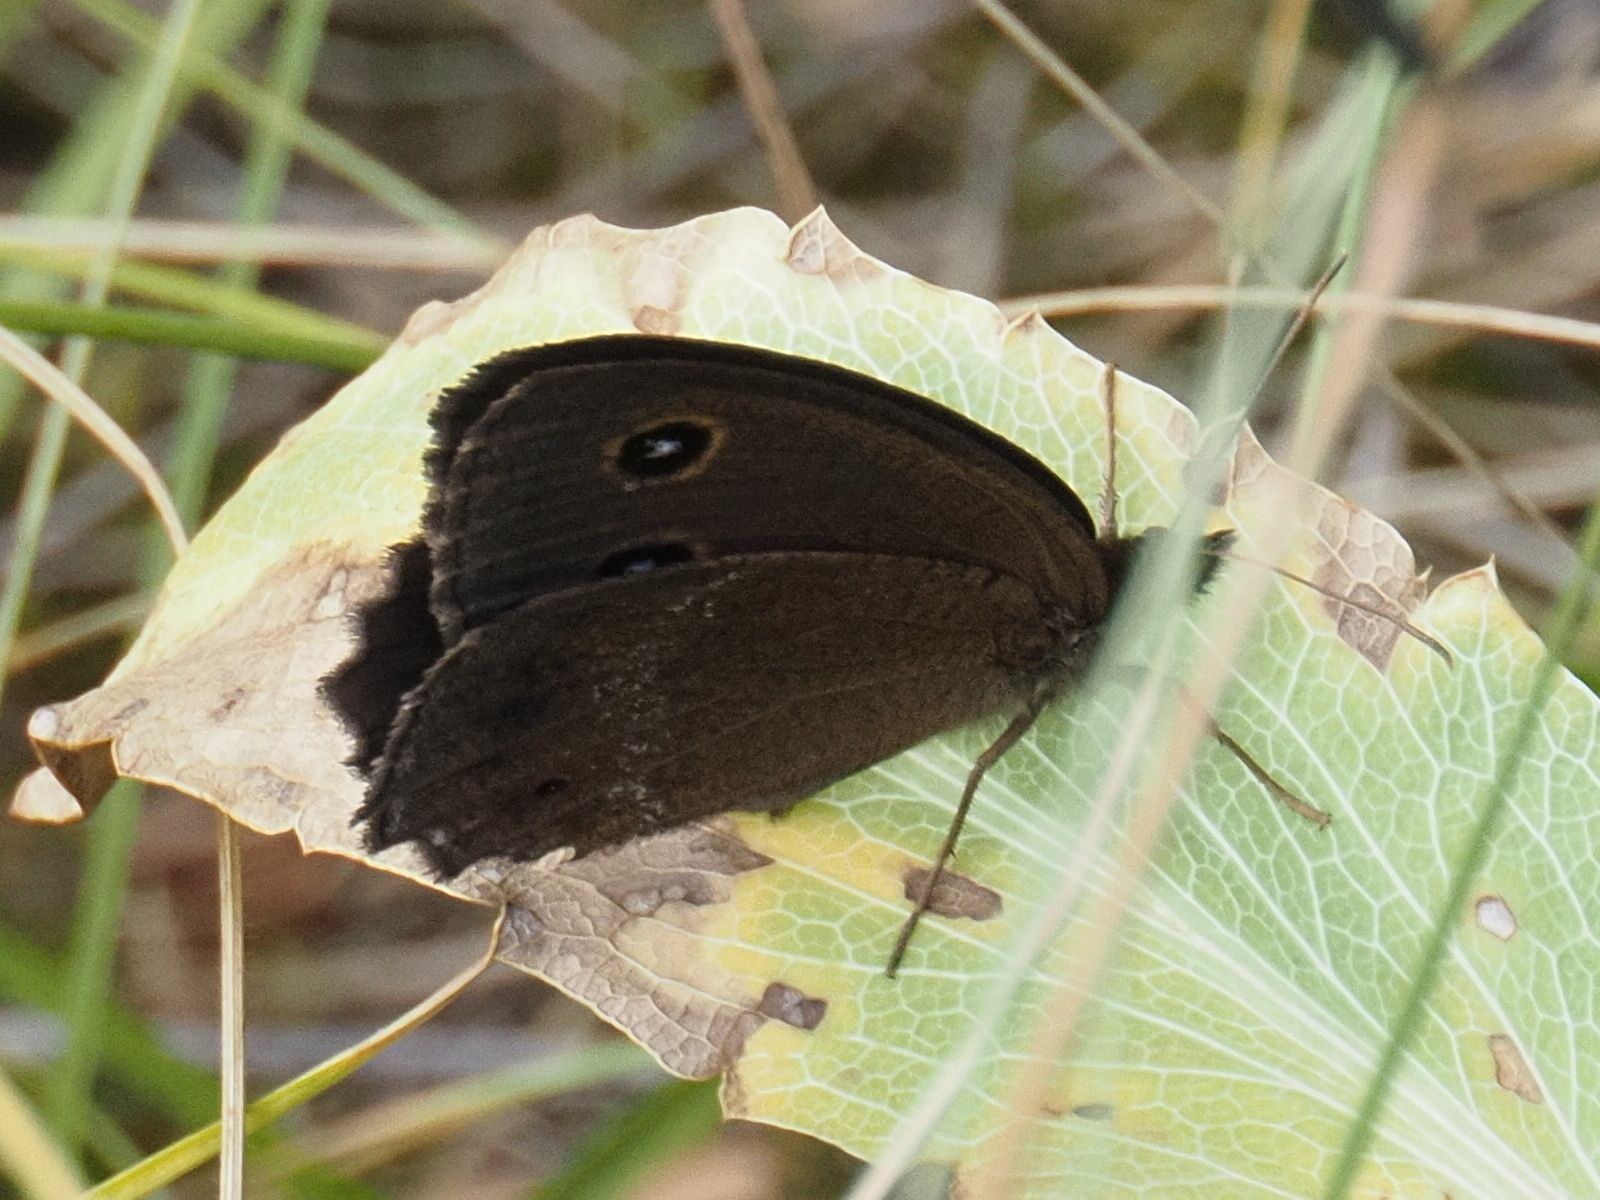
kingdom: Animalia
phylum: Arthropoda
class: Insecta
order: Lepidoptera
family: Nymphalidae
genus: Minois
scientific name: Minois dryas
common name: Dryad
